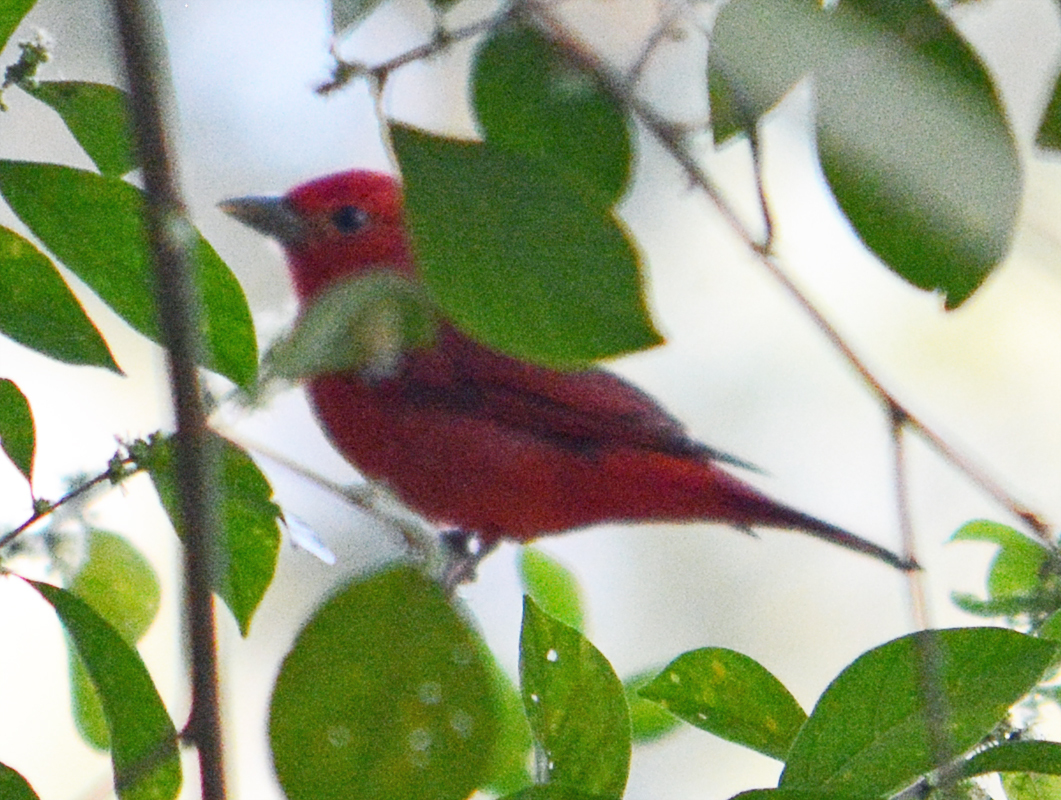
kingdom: Animalia
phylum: Chordata
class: Aves
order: Passeriformes
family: Cardinalidae
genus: Piranga
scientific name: Piranga rubra
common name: Summer tanager
